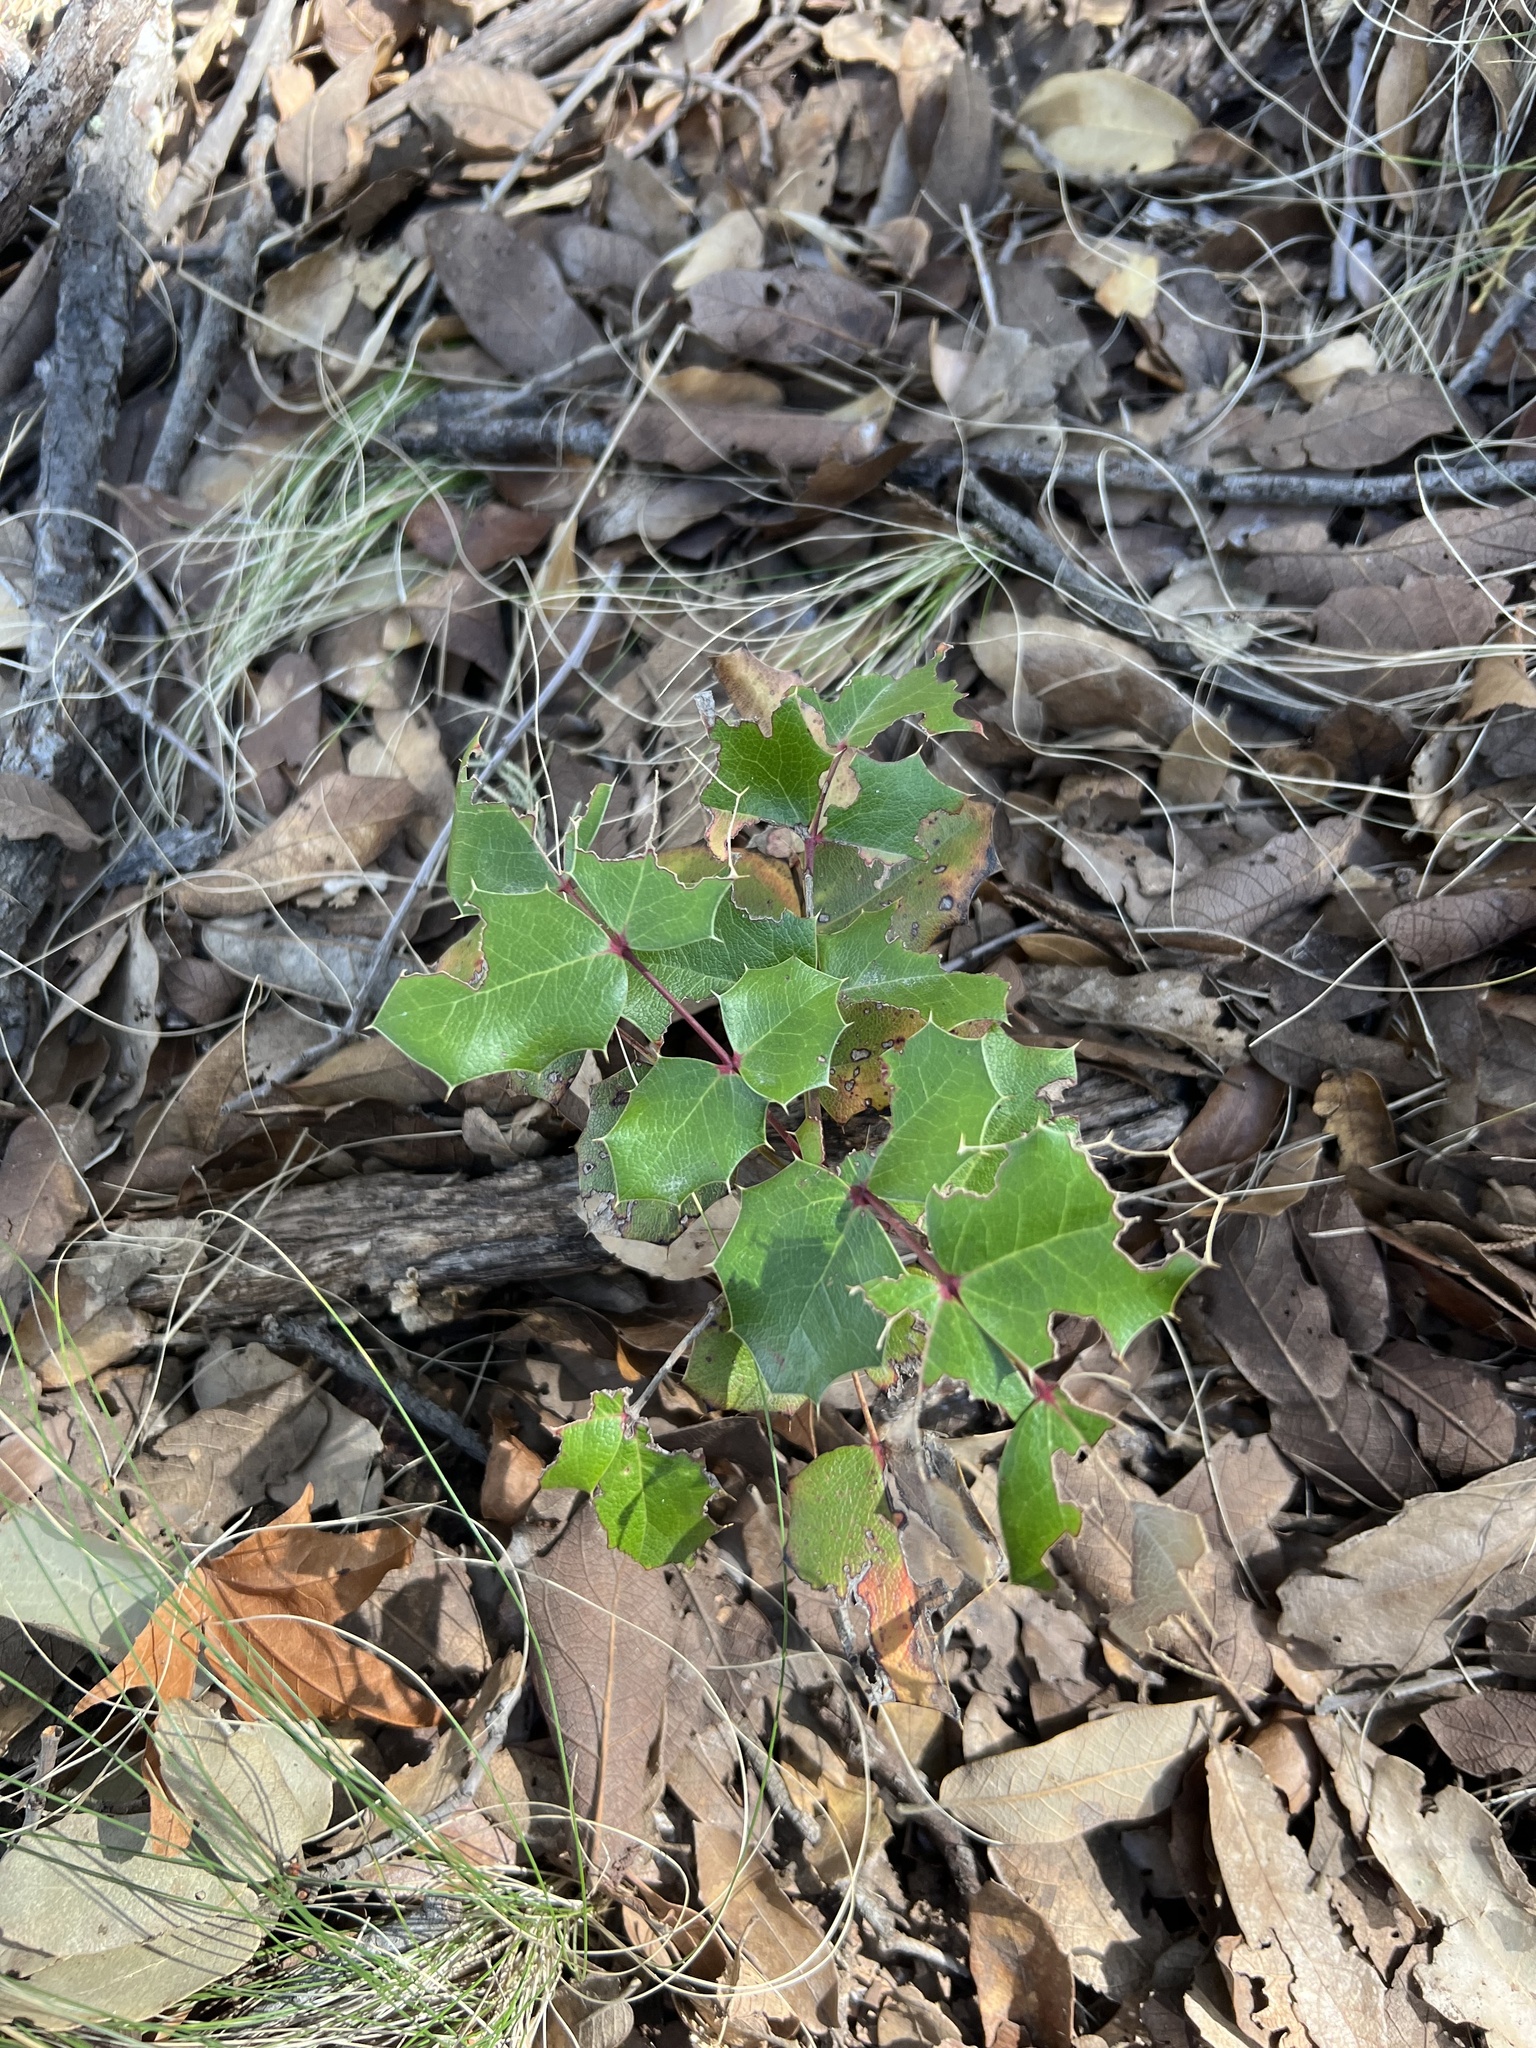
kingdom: Plantae
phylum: Tracheophyta
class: Magnoliopsida
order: Ranunculales
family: Berberidaceae
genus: Mahonia
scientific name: Mahonia wilcoxii
